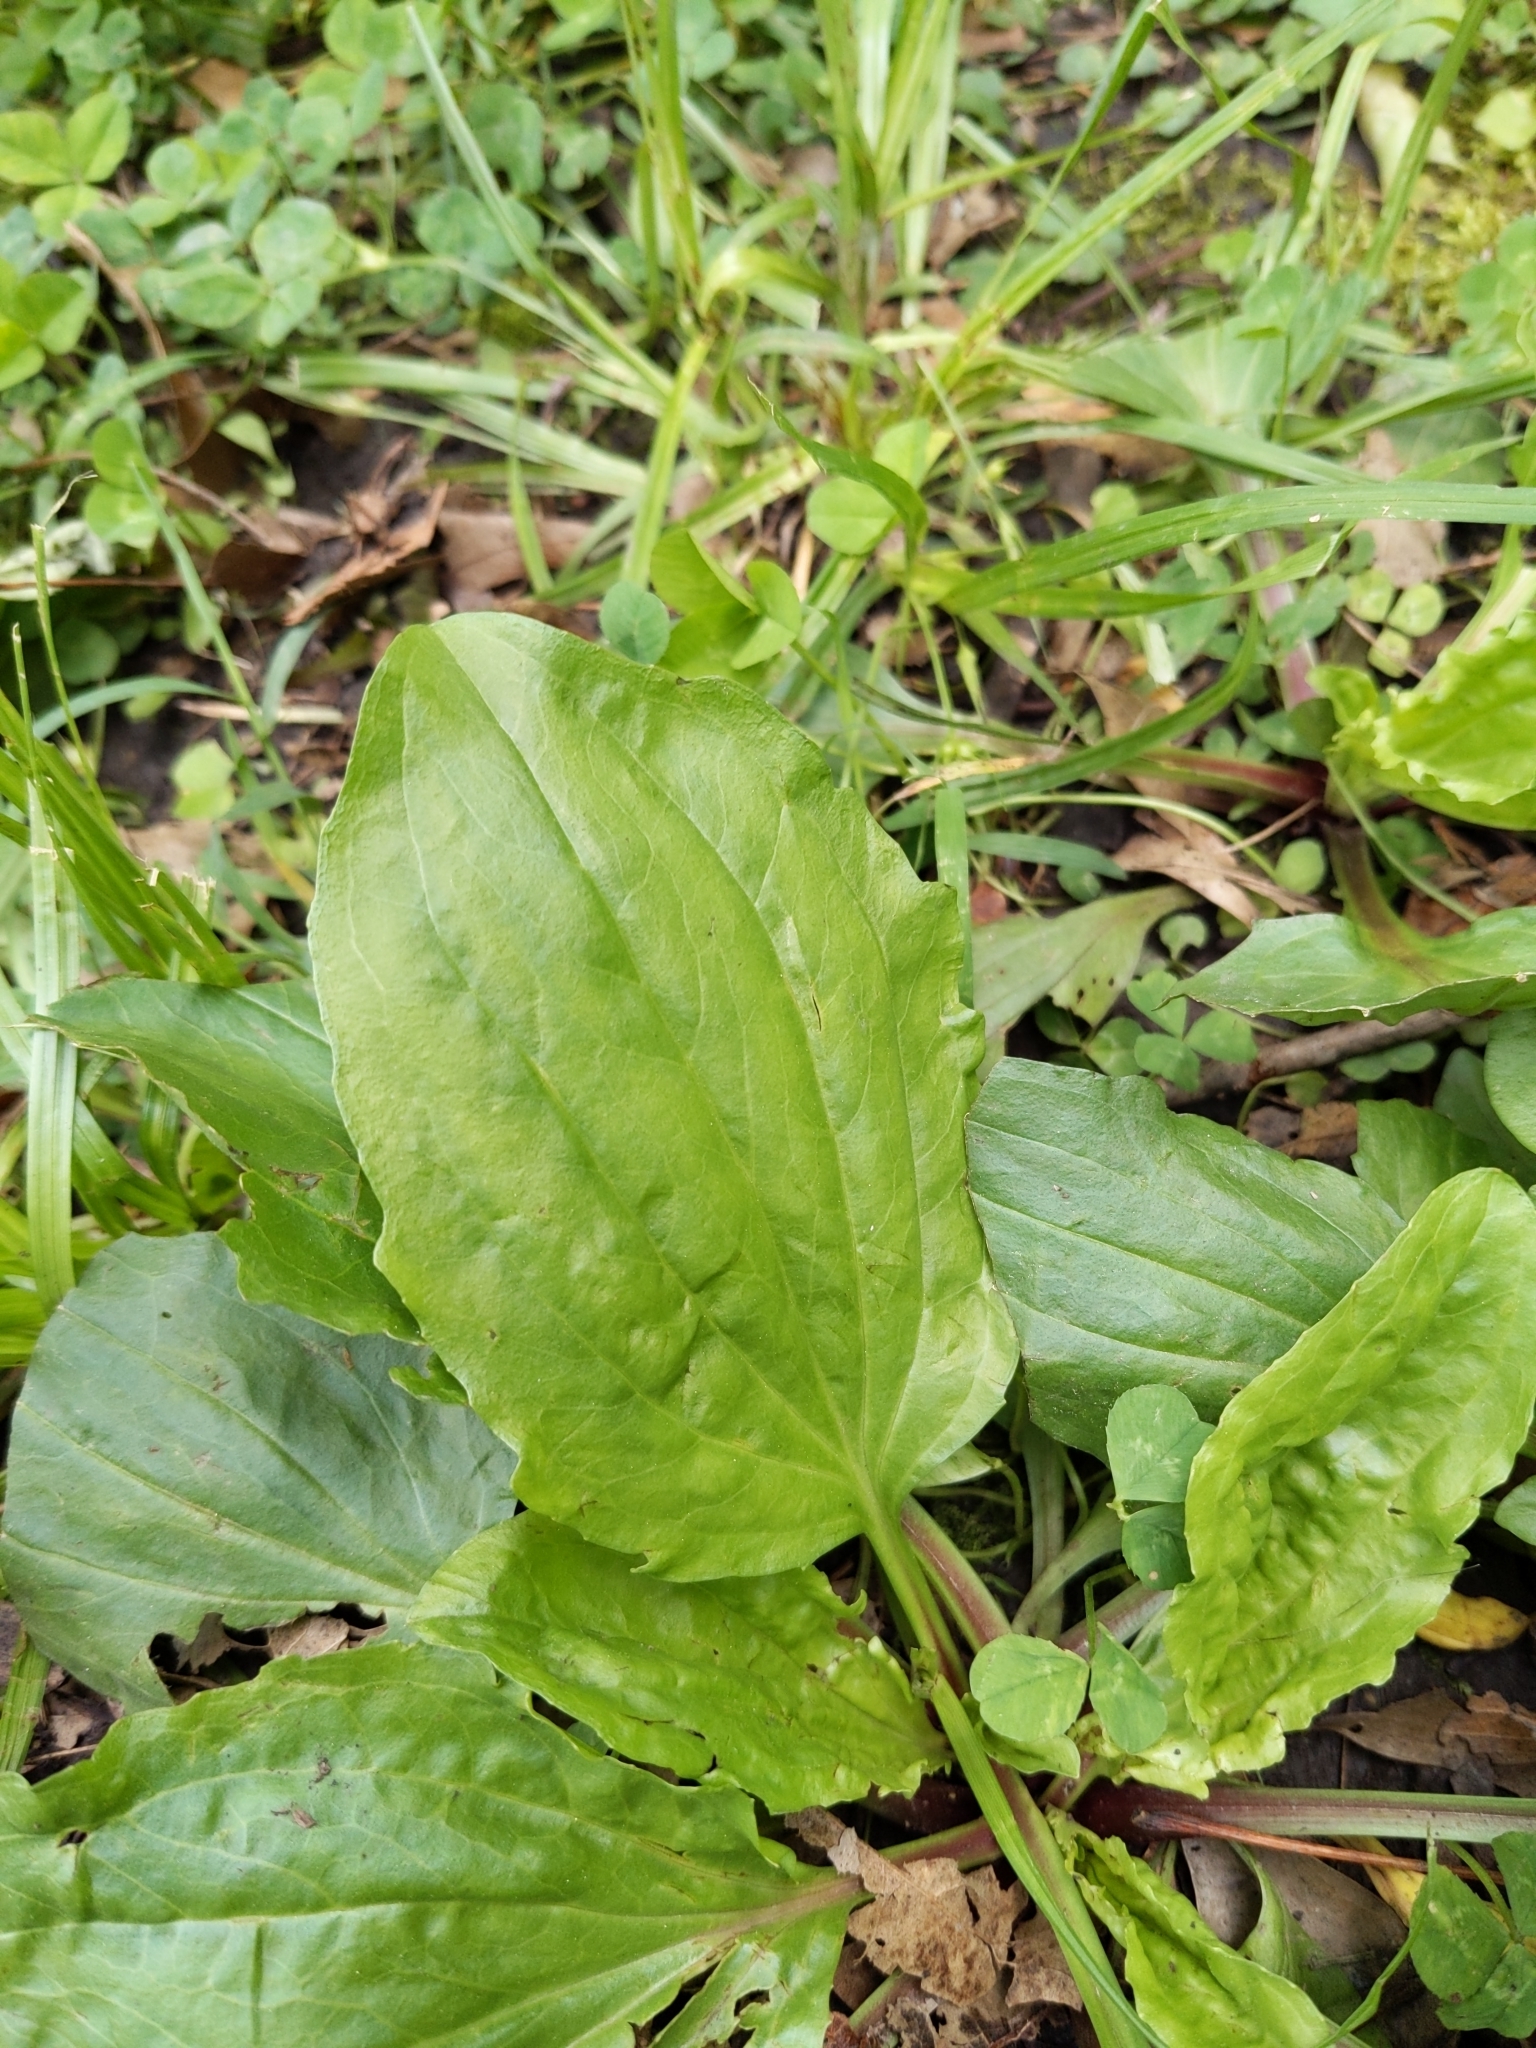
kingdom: Plantae
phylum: Tracheophyta
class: Magnoliopsida
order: Lamiales
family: Plantaginaceae
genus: Plantago
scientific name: Plantago rugelii
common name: American plantain
